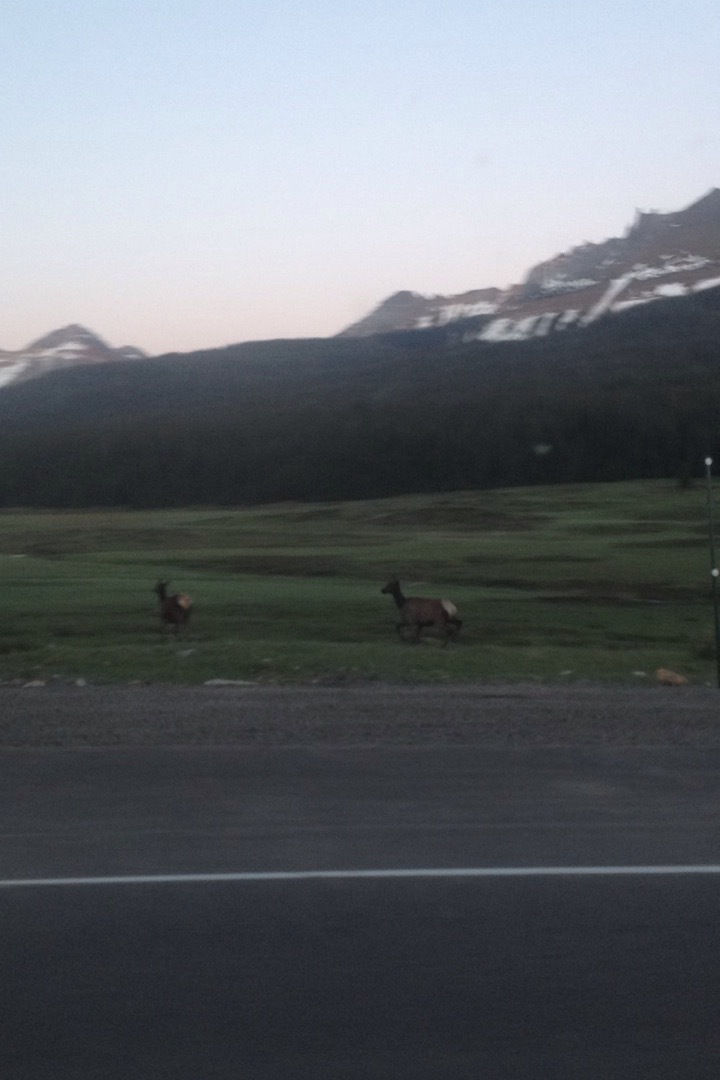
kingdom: Animalia
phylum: Chordata
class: Mammalia
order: Artiodactyla
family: Cervidae
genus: Cervus
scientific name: Cervus elaphus
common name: Red deer
